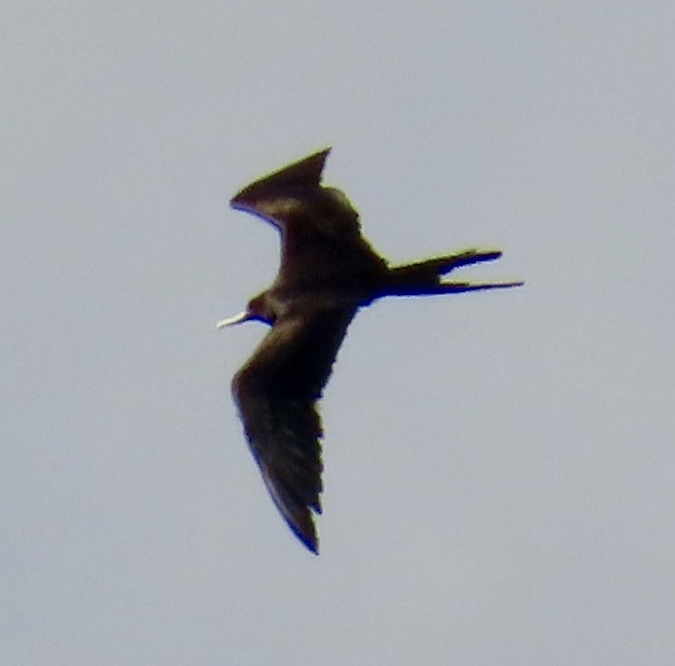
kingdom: Animalia
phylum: Chordata
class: Aves
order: Suliformes
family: Fregatidae
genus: Fregata
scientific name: Fregata magnificens
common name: Magnificent frigatebird
